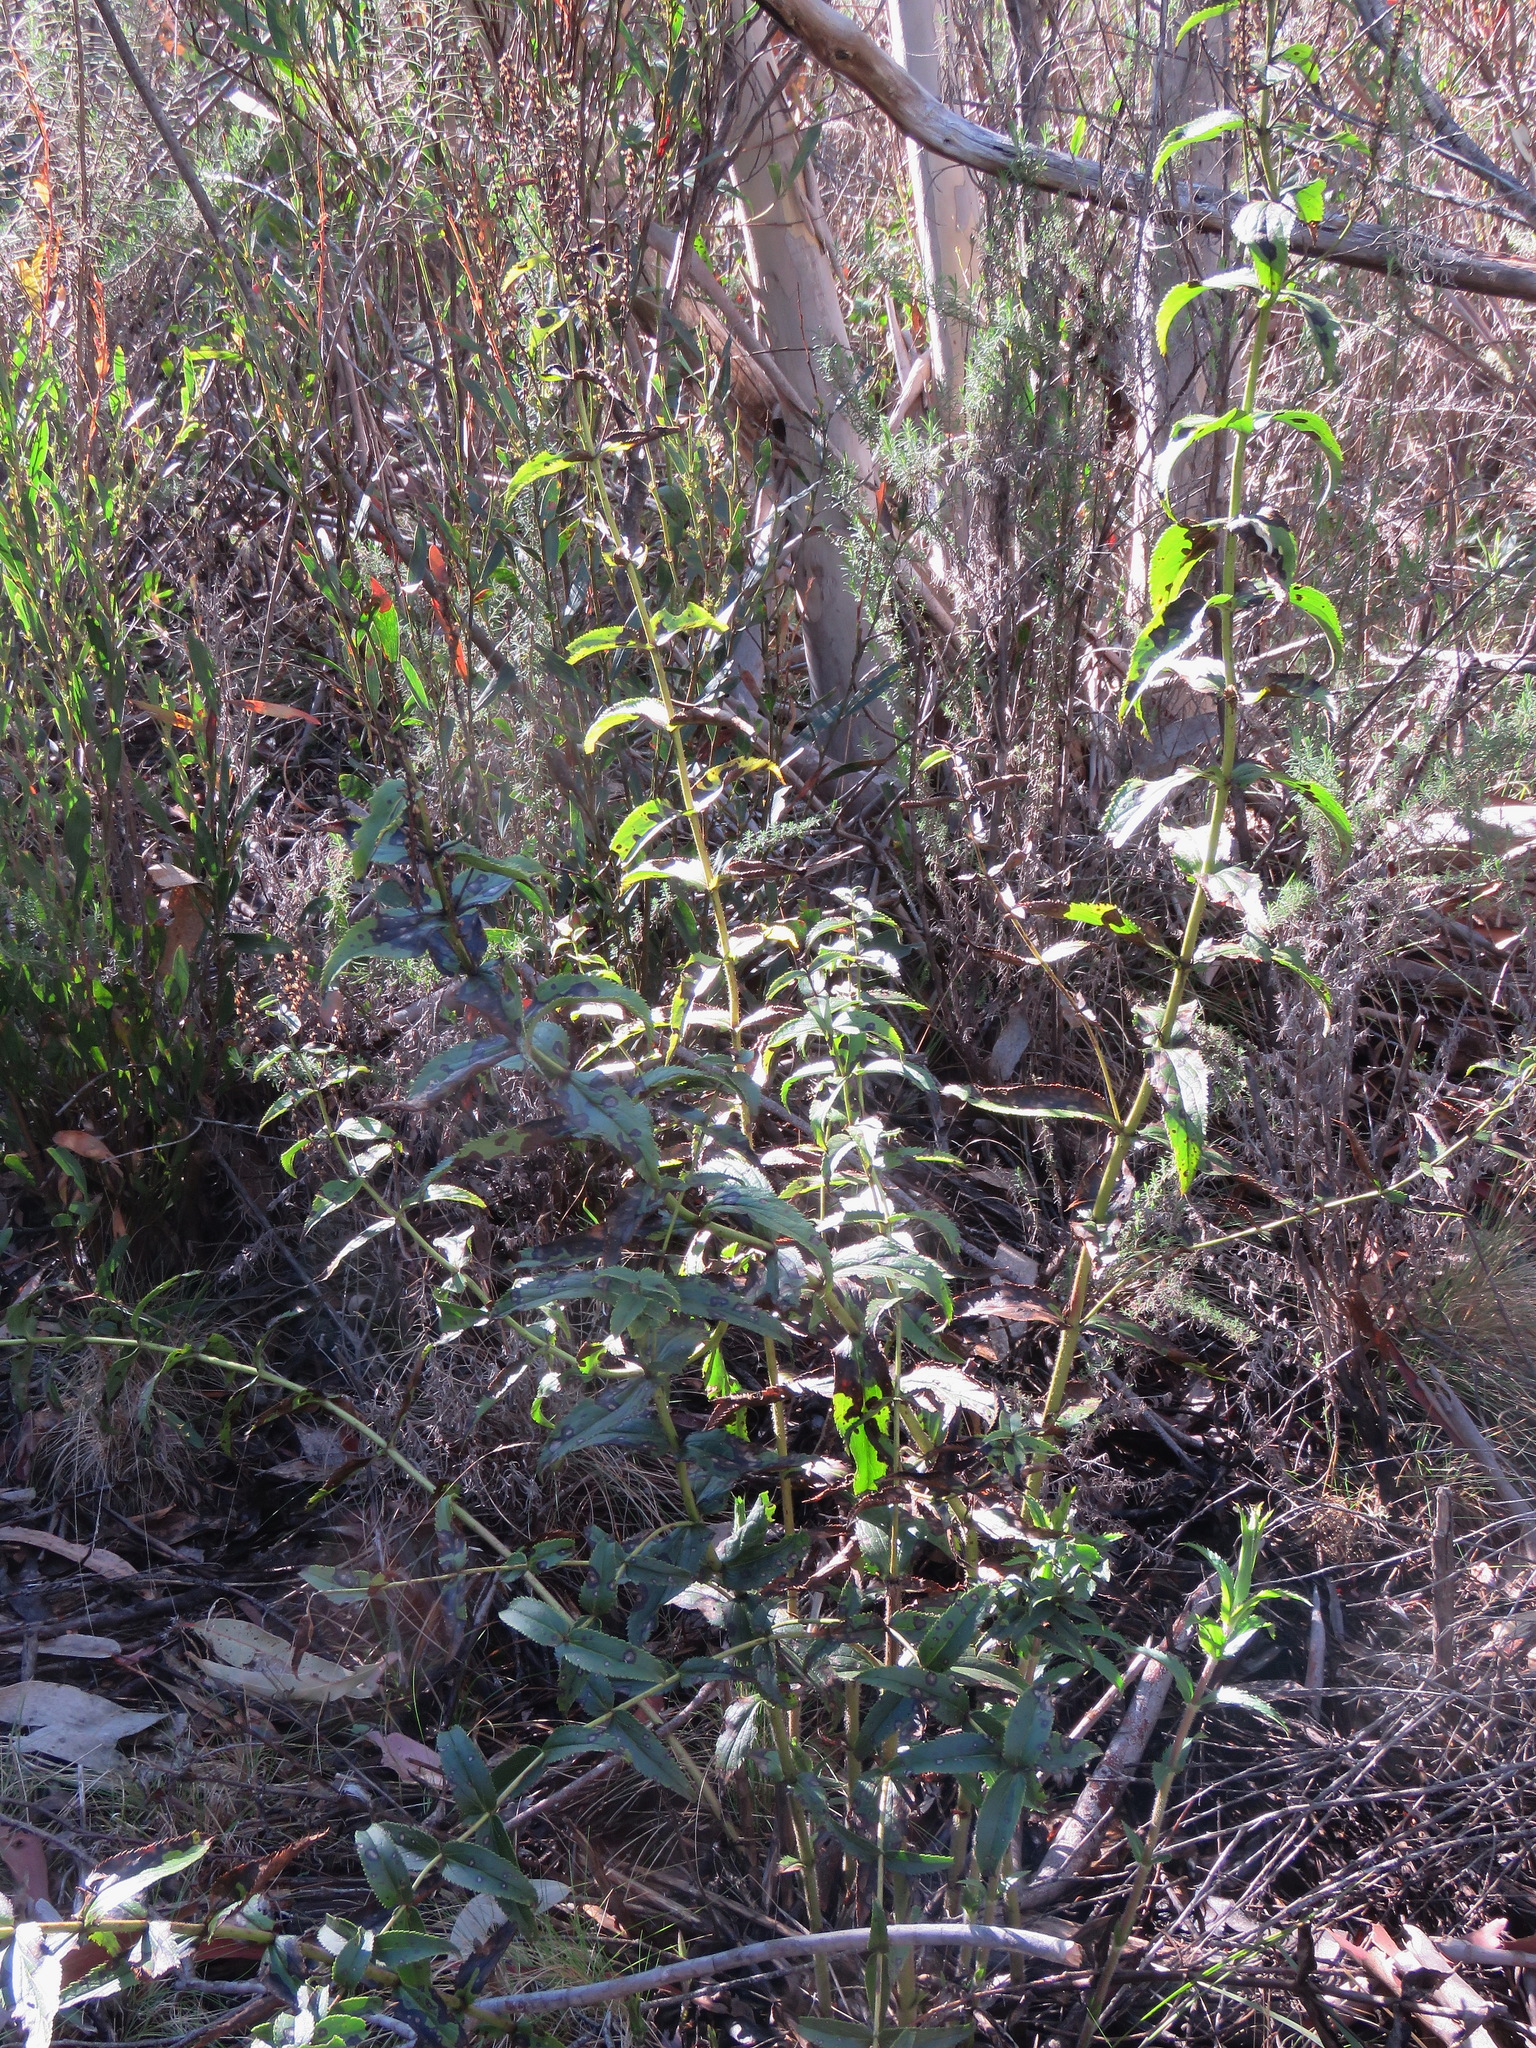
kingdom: Plantae
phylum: Tracheophyta
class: Magnoliopsida
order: Lamiales
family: Plantaginaceae
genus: Veronica
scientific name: Veronica derwentiana
